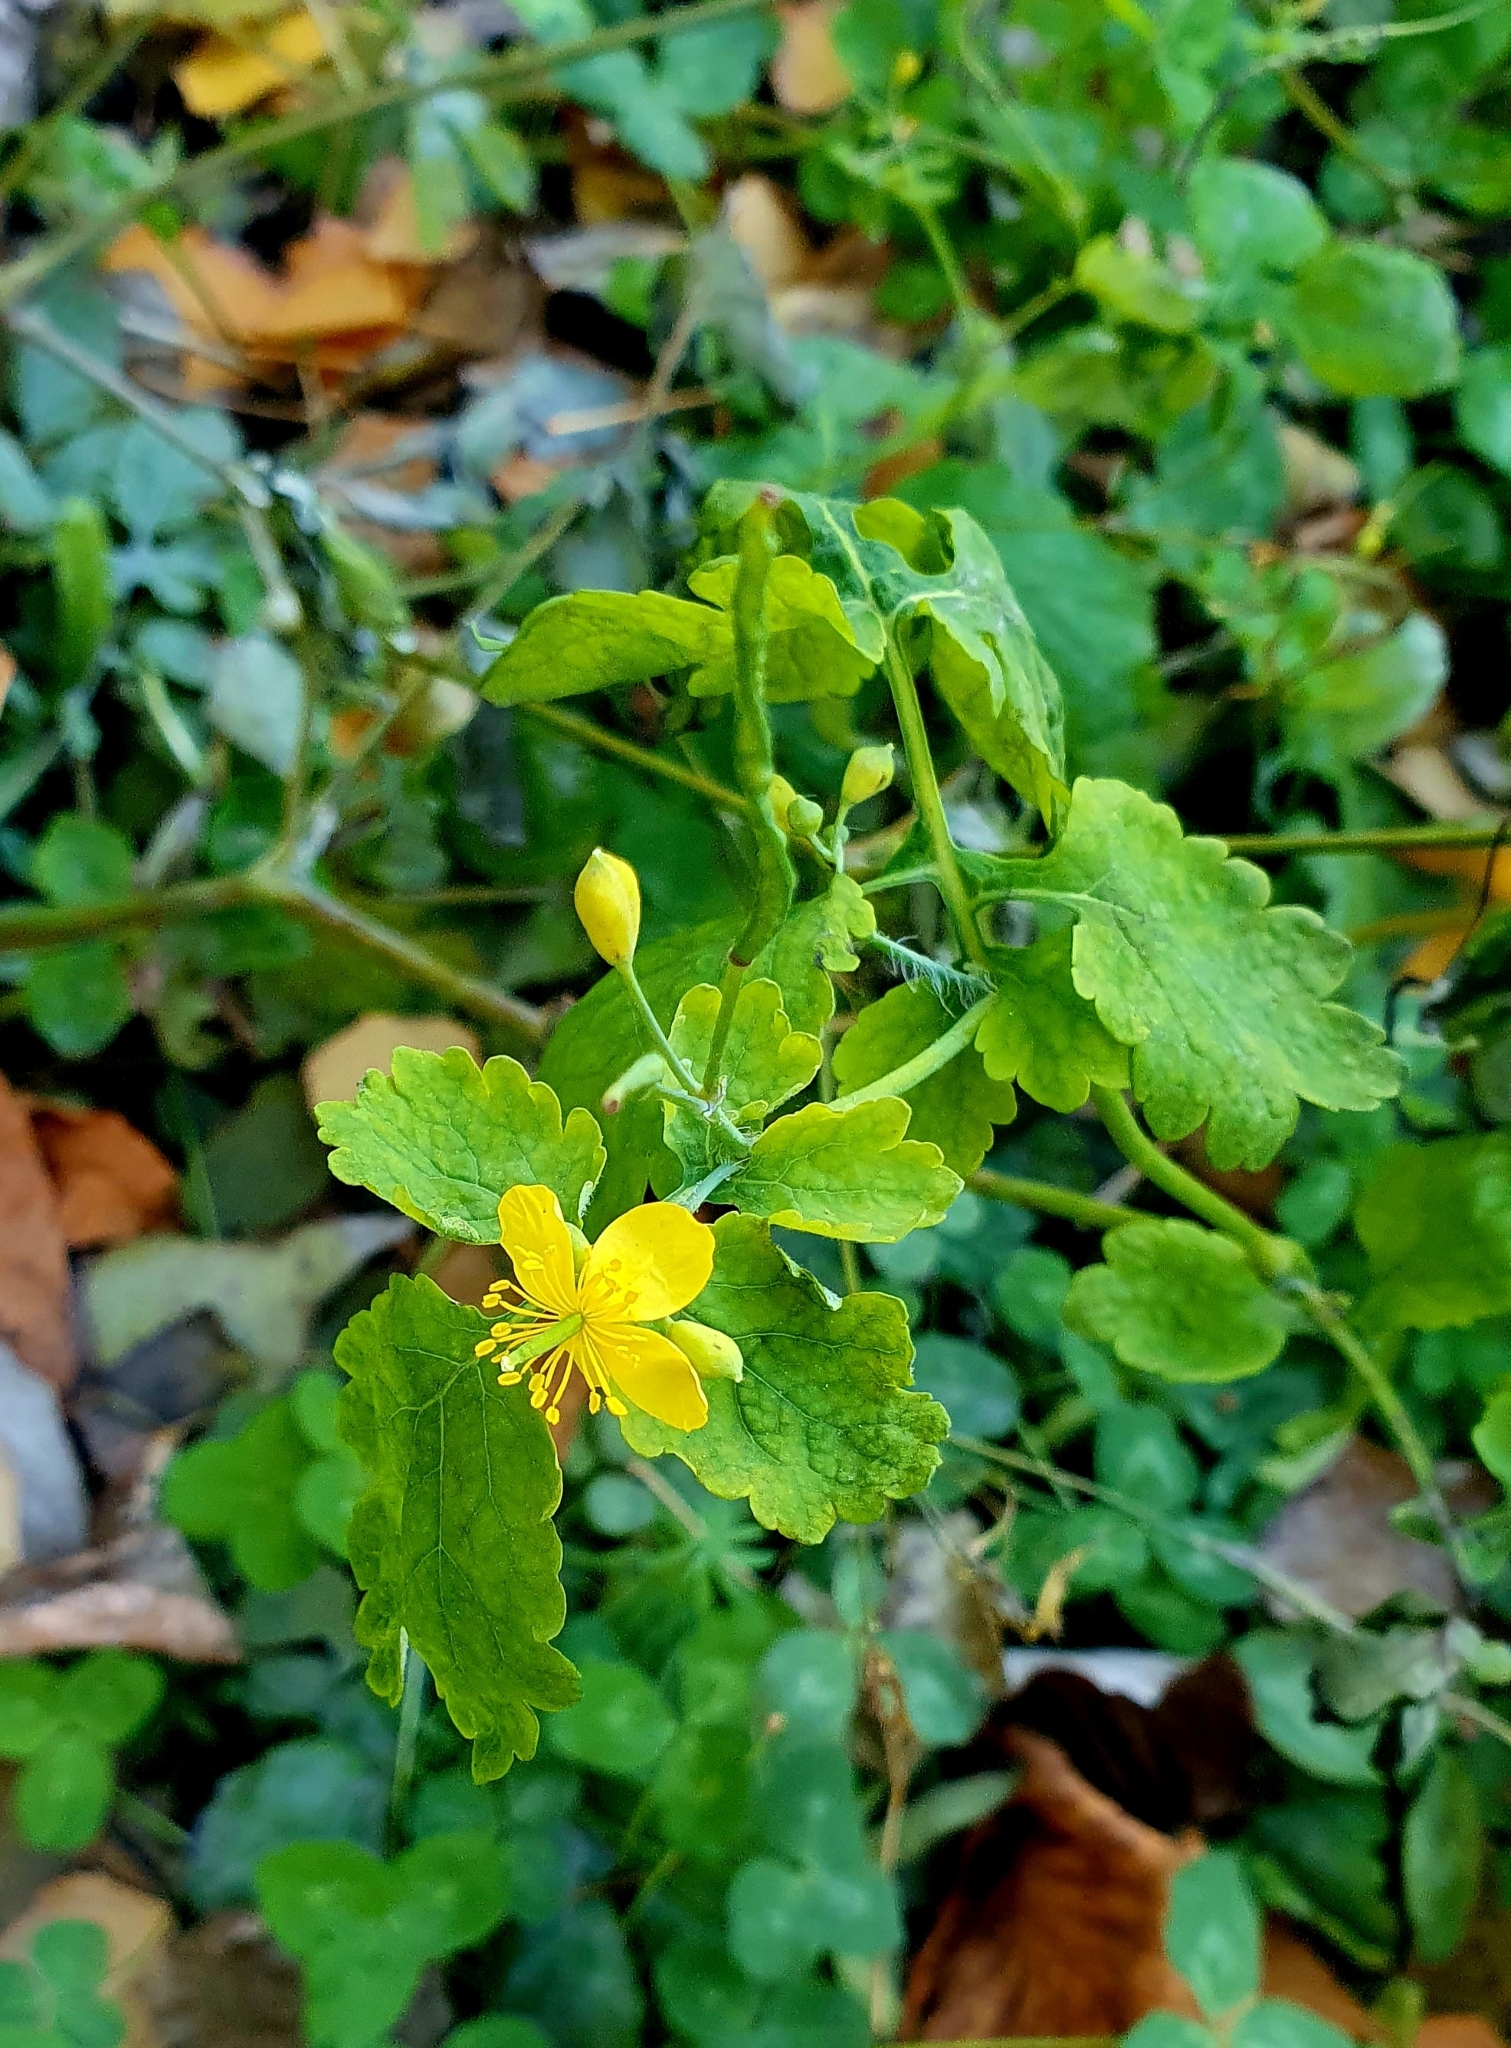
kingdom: Plantae
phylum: Tracheophyta
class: Magnoliopsida
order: Ranunculales
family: Papaveraceae
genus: Chelidonium
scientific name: Chelidonium majus
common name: Greater celandine
